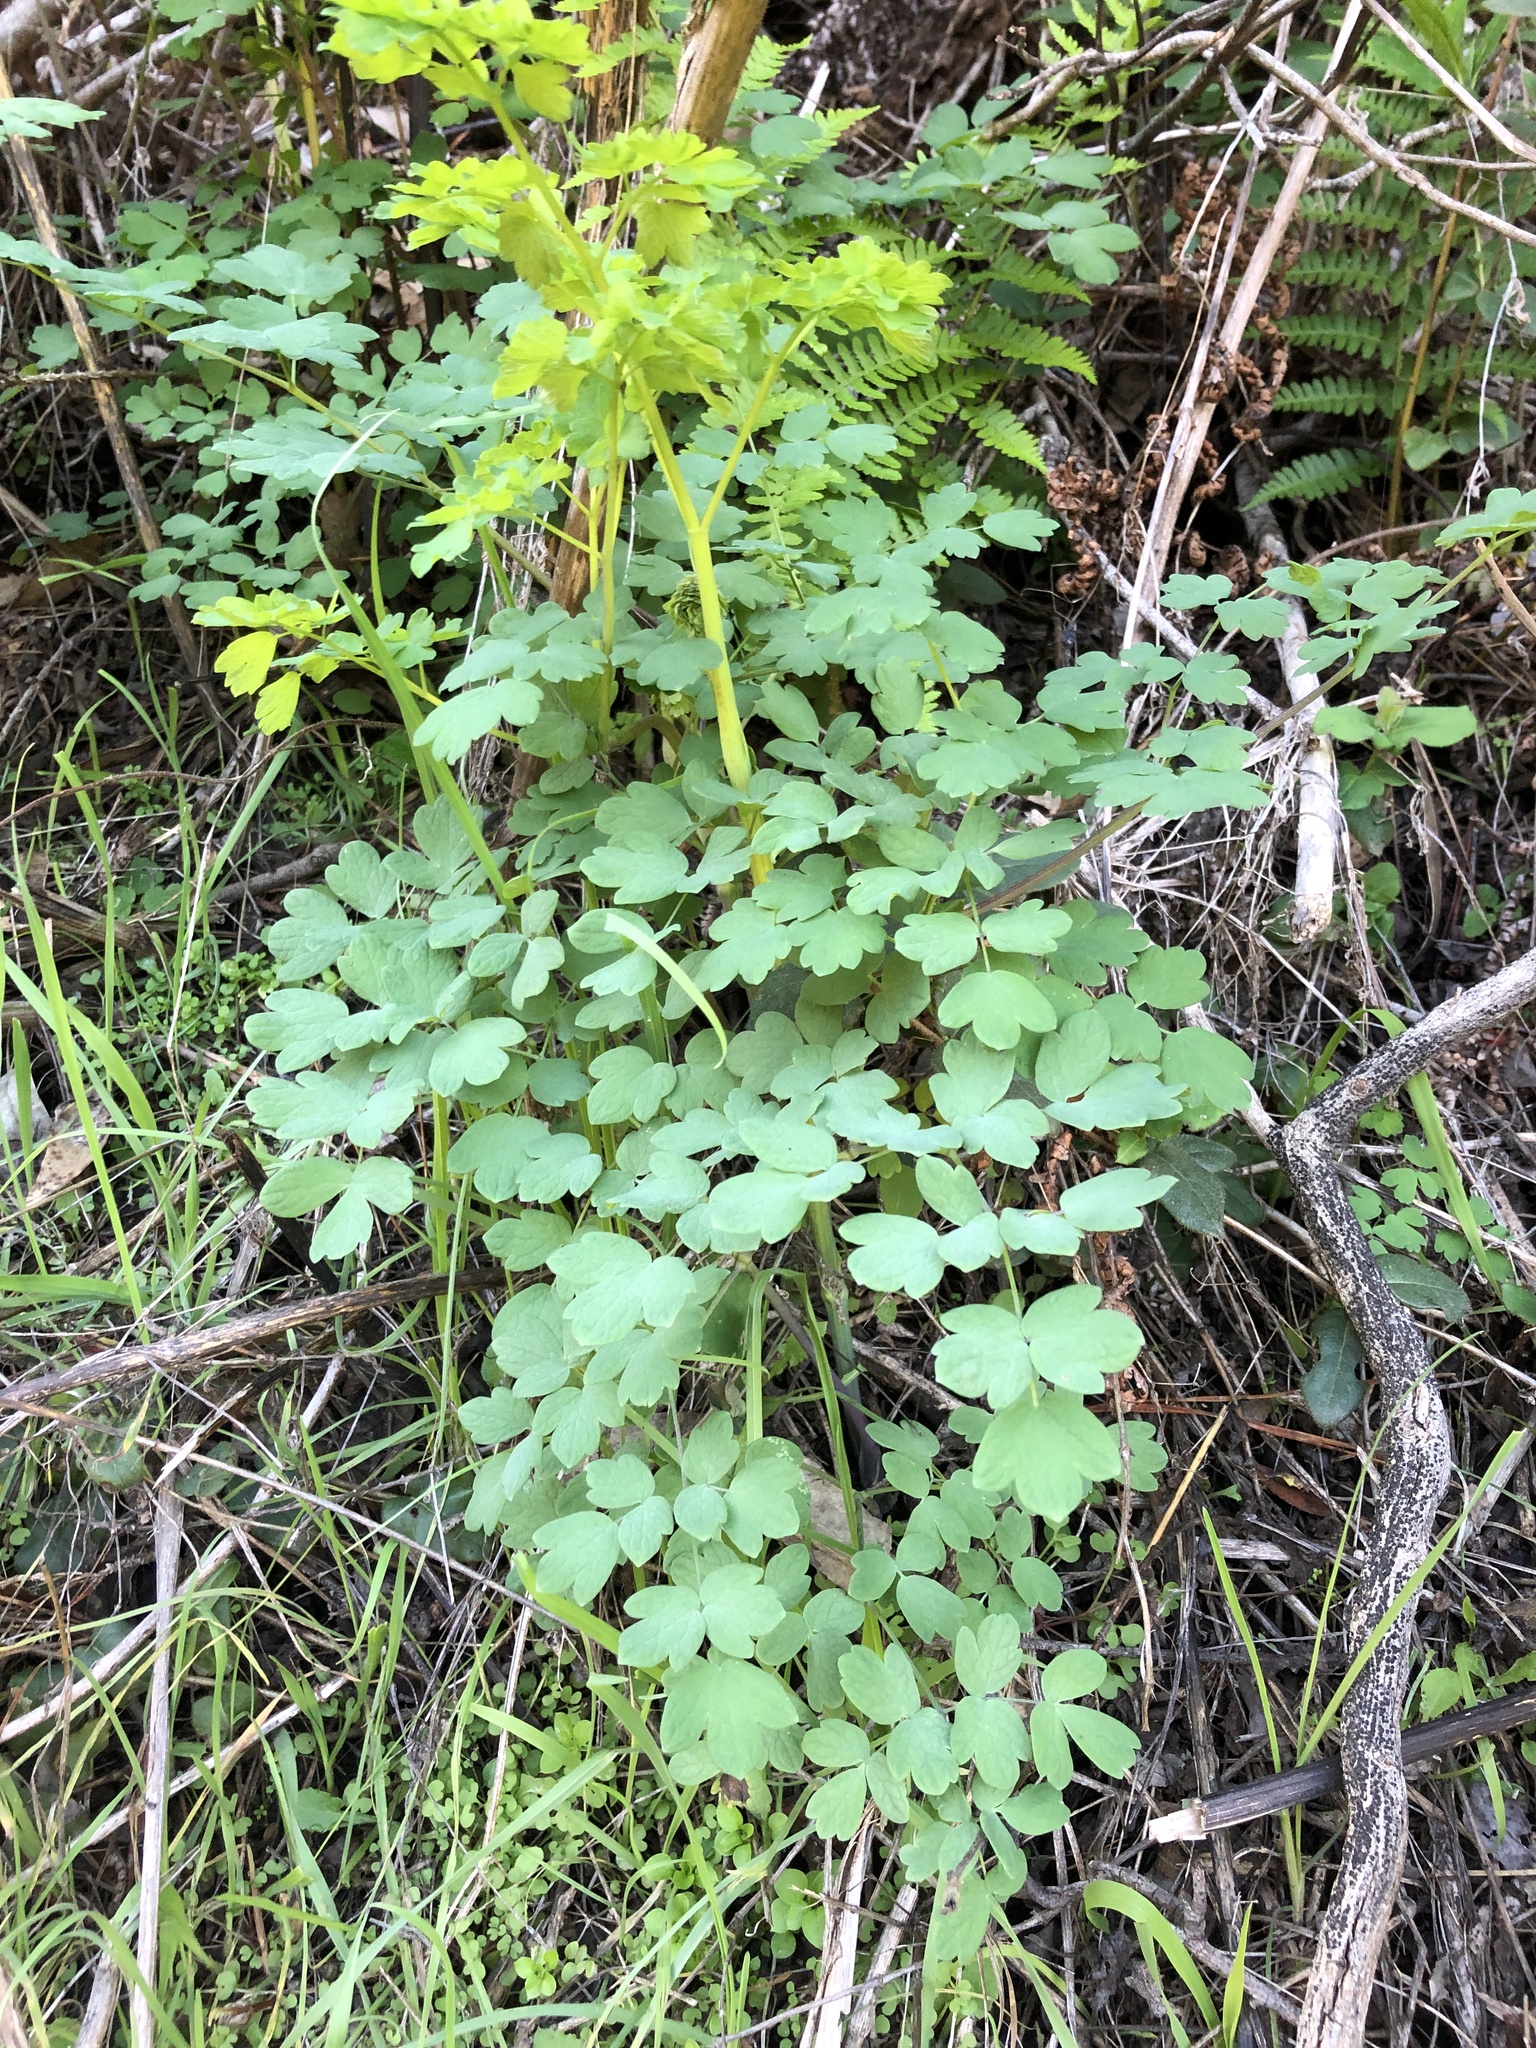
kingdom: Plantae
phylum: Tracheophyta
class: Magnoliopsida
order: Ranunculales
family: Ranunculaceae
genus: Thalictrum
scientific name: Thalictrum fendleri
